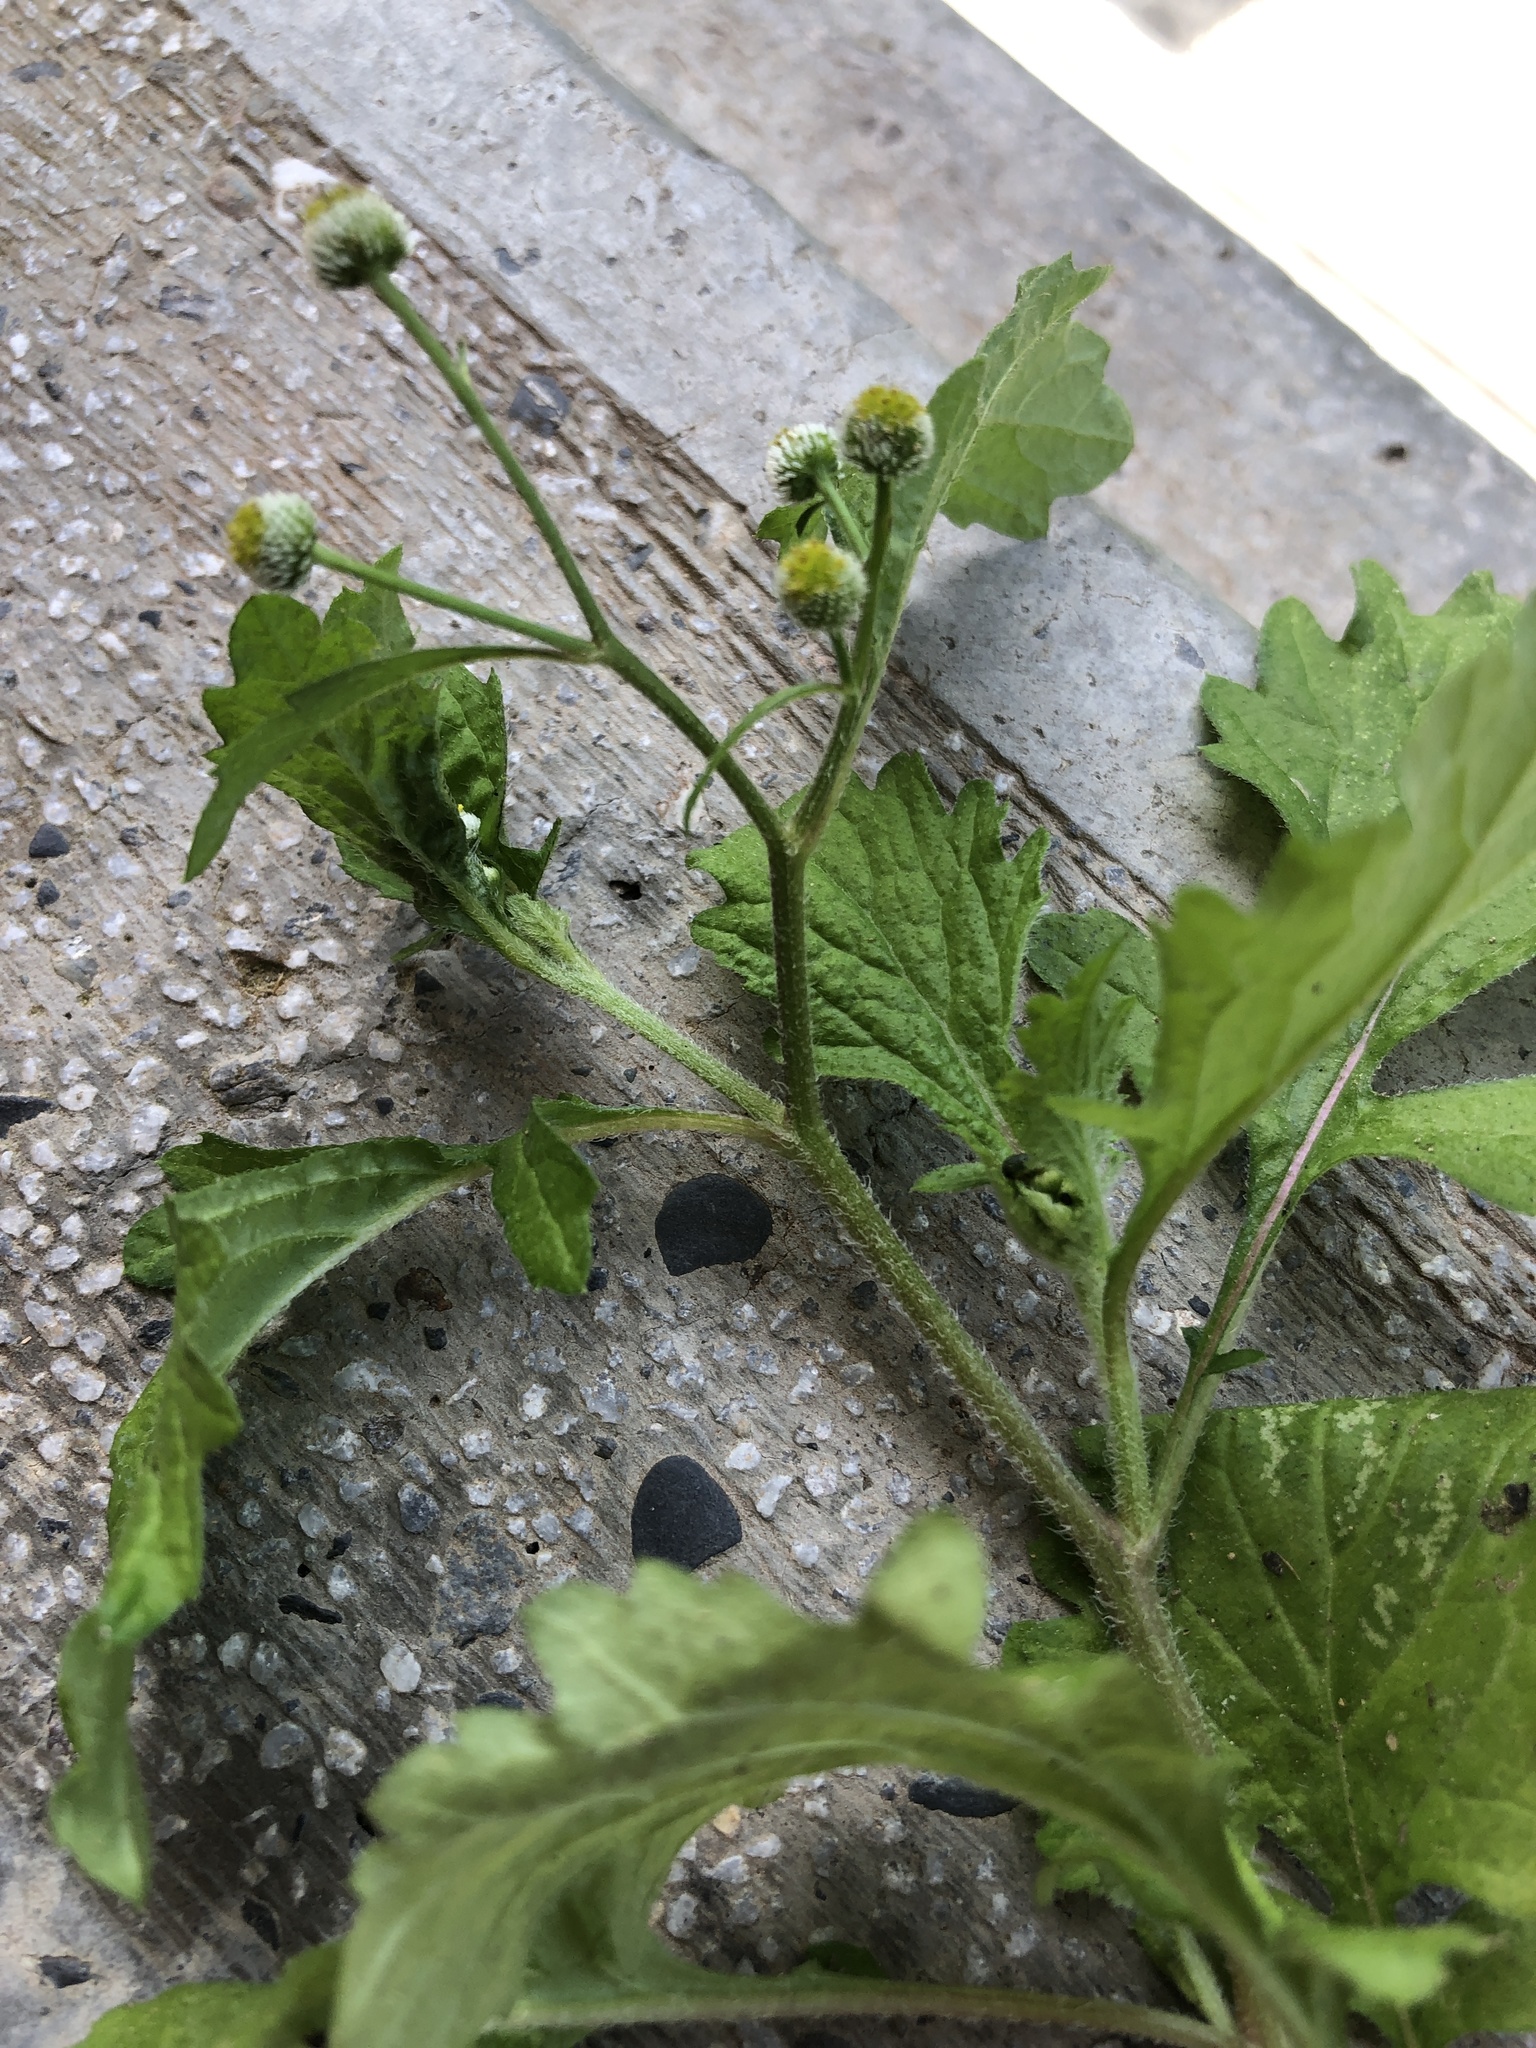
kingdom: Plantae
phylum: Tracheophyta
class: Magnoliopsida
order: Asterales
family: Asteraceae
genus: Dichrocephala
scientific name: Dichrocephala integrifolia
